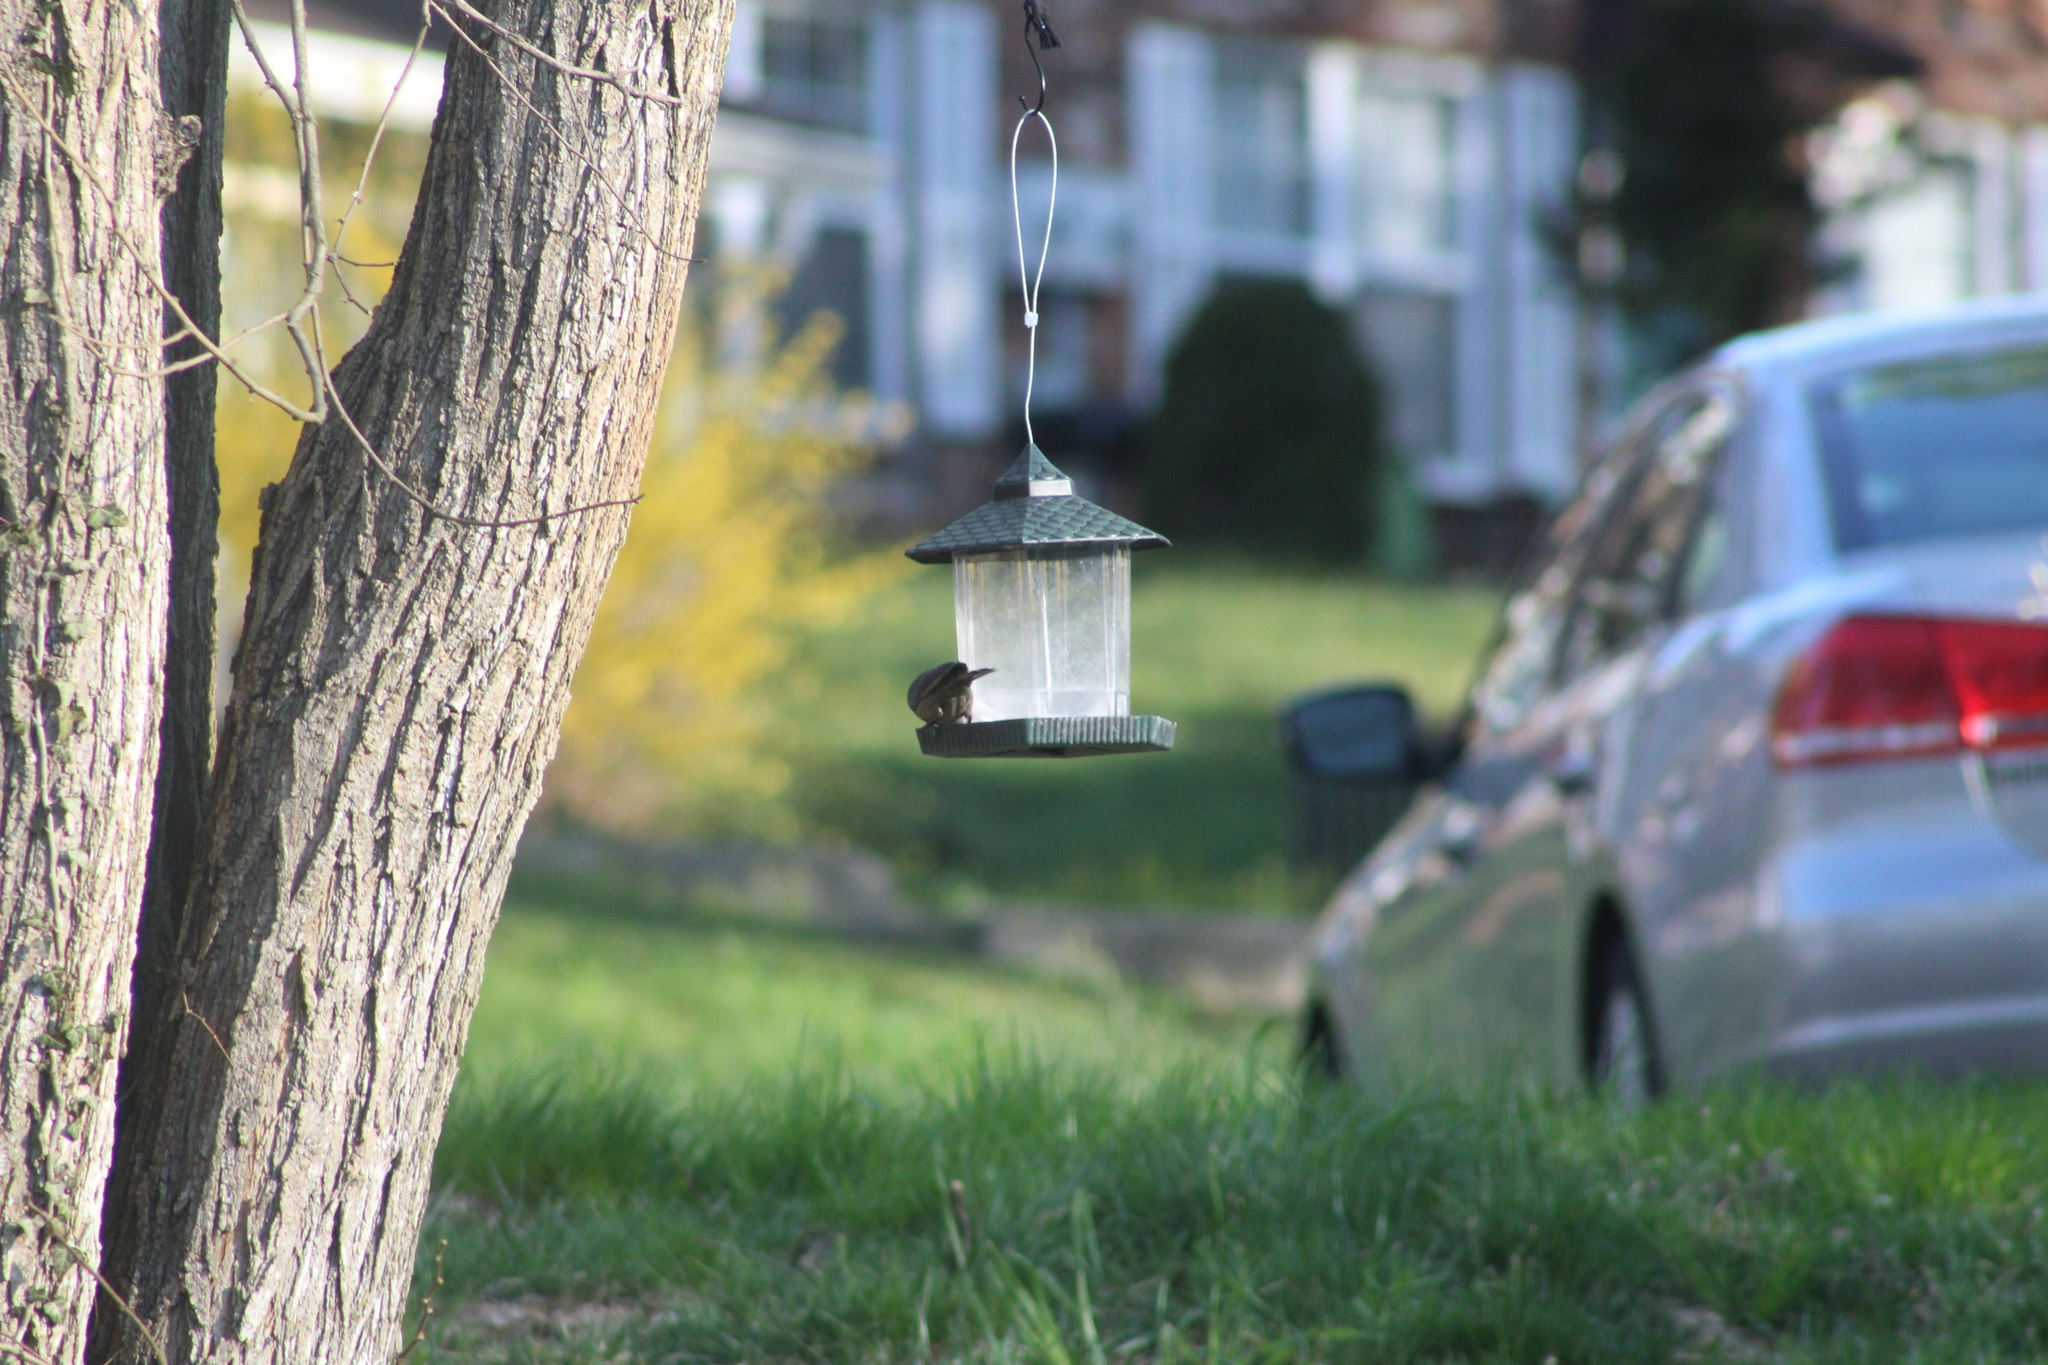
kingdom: Animalia
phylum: Chordata
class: Aves
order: Passeriformes
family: Icteridae
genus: Molothrus
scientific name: Molothrus ater
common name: Brown-headed cowbird
